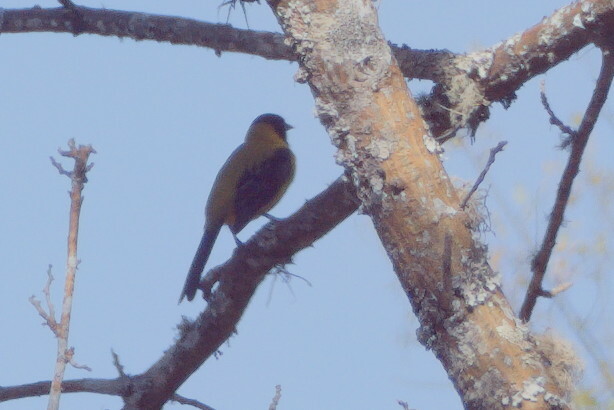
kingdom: Animalia
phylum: Chordata
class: Aves
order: Passeriformes
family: Icteridae
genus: Icterus
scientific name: Icterus graduacauda
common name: Audubon's oriole
